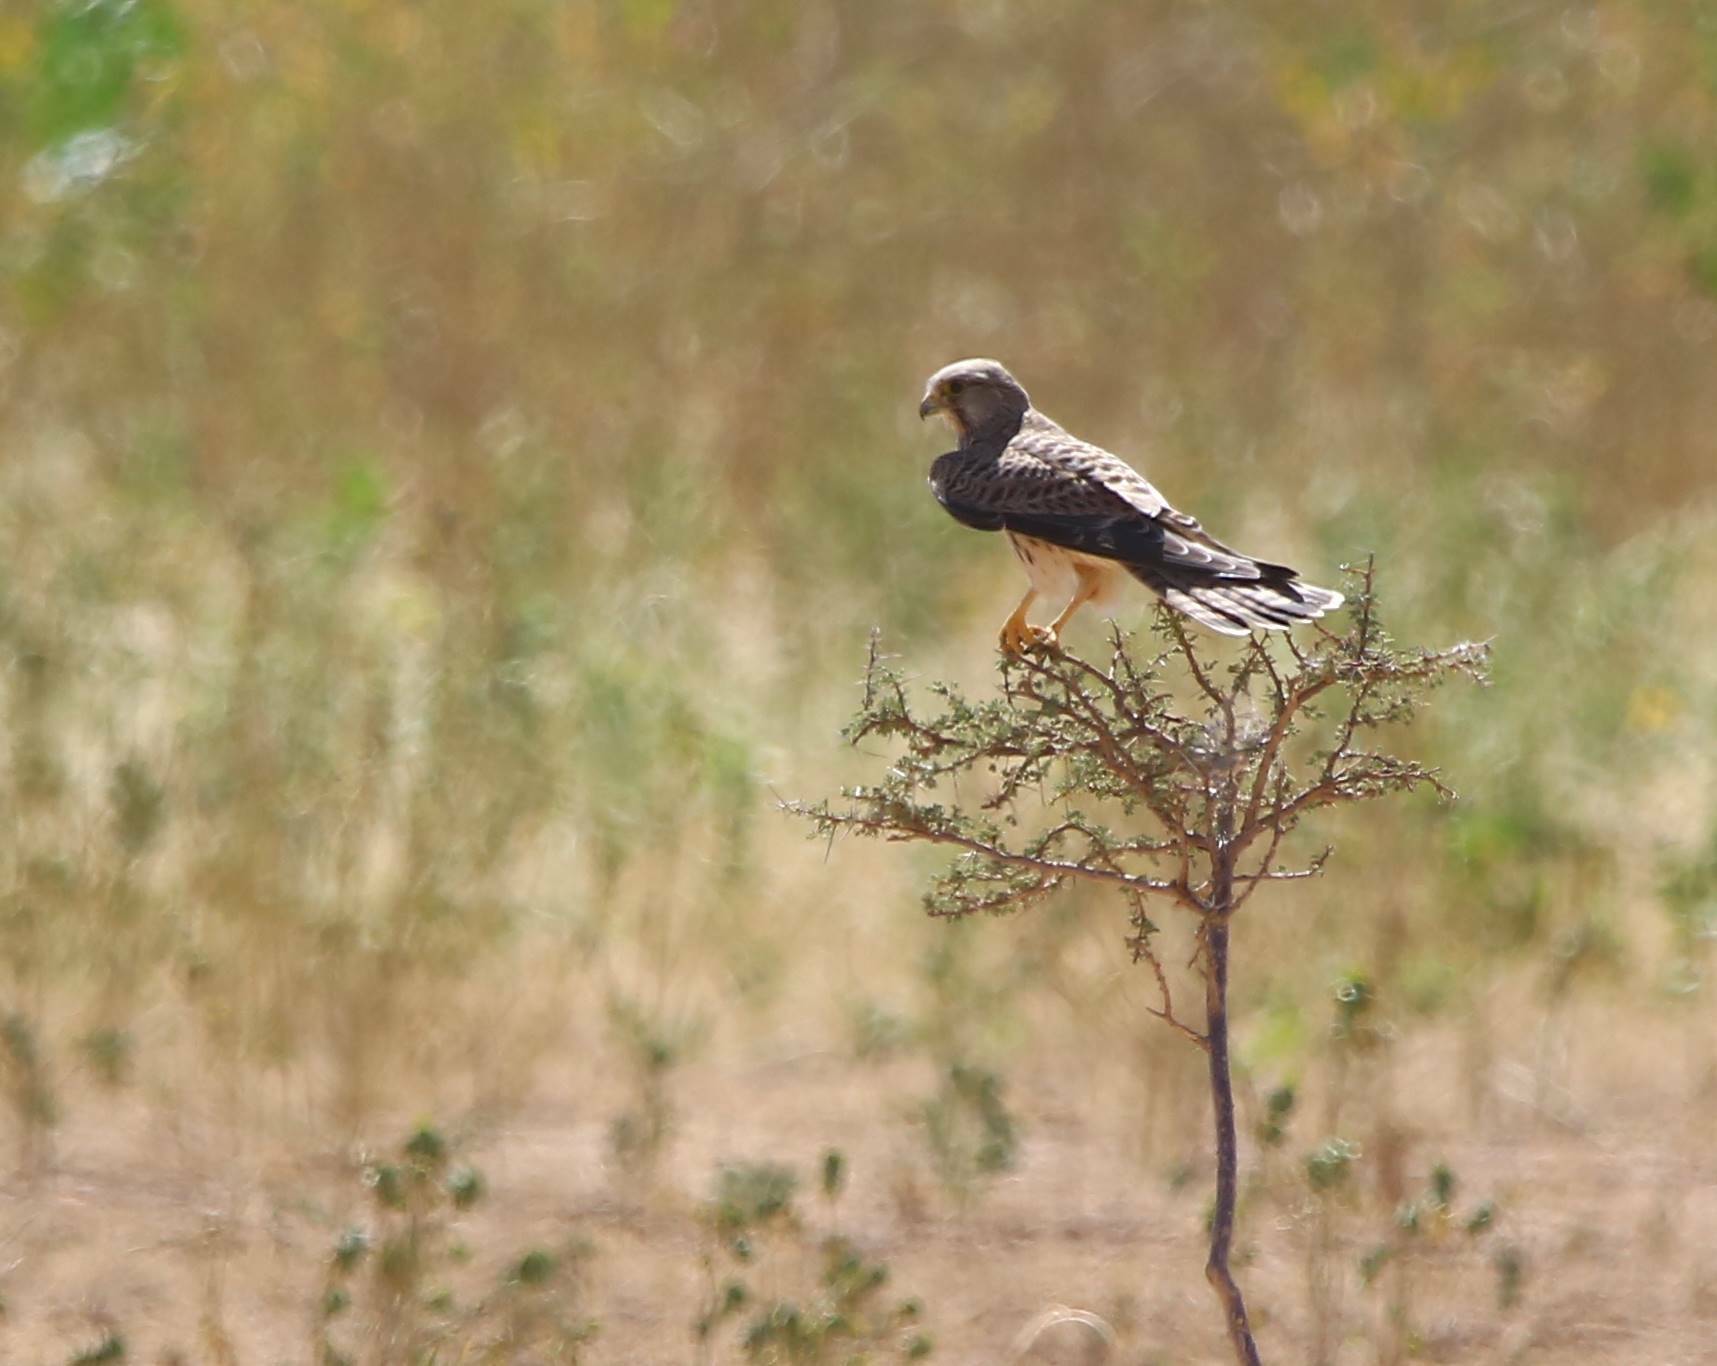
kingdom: Animalia
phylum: Chordata
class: Aves
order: Falconiformes
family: Falconidae
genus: Falco
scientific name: Falco tinnunculus
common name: Common kestrel
